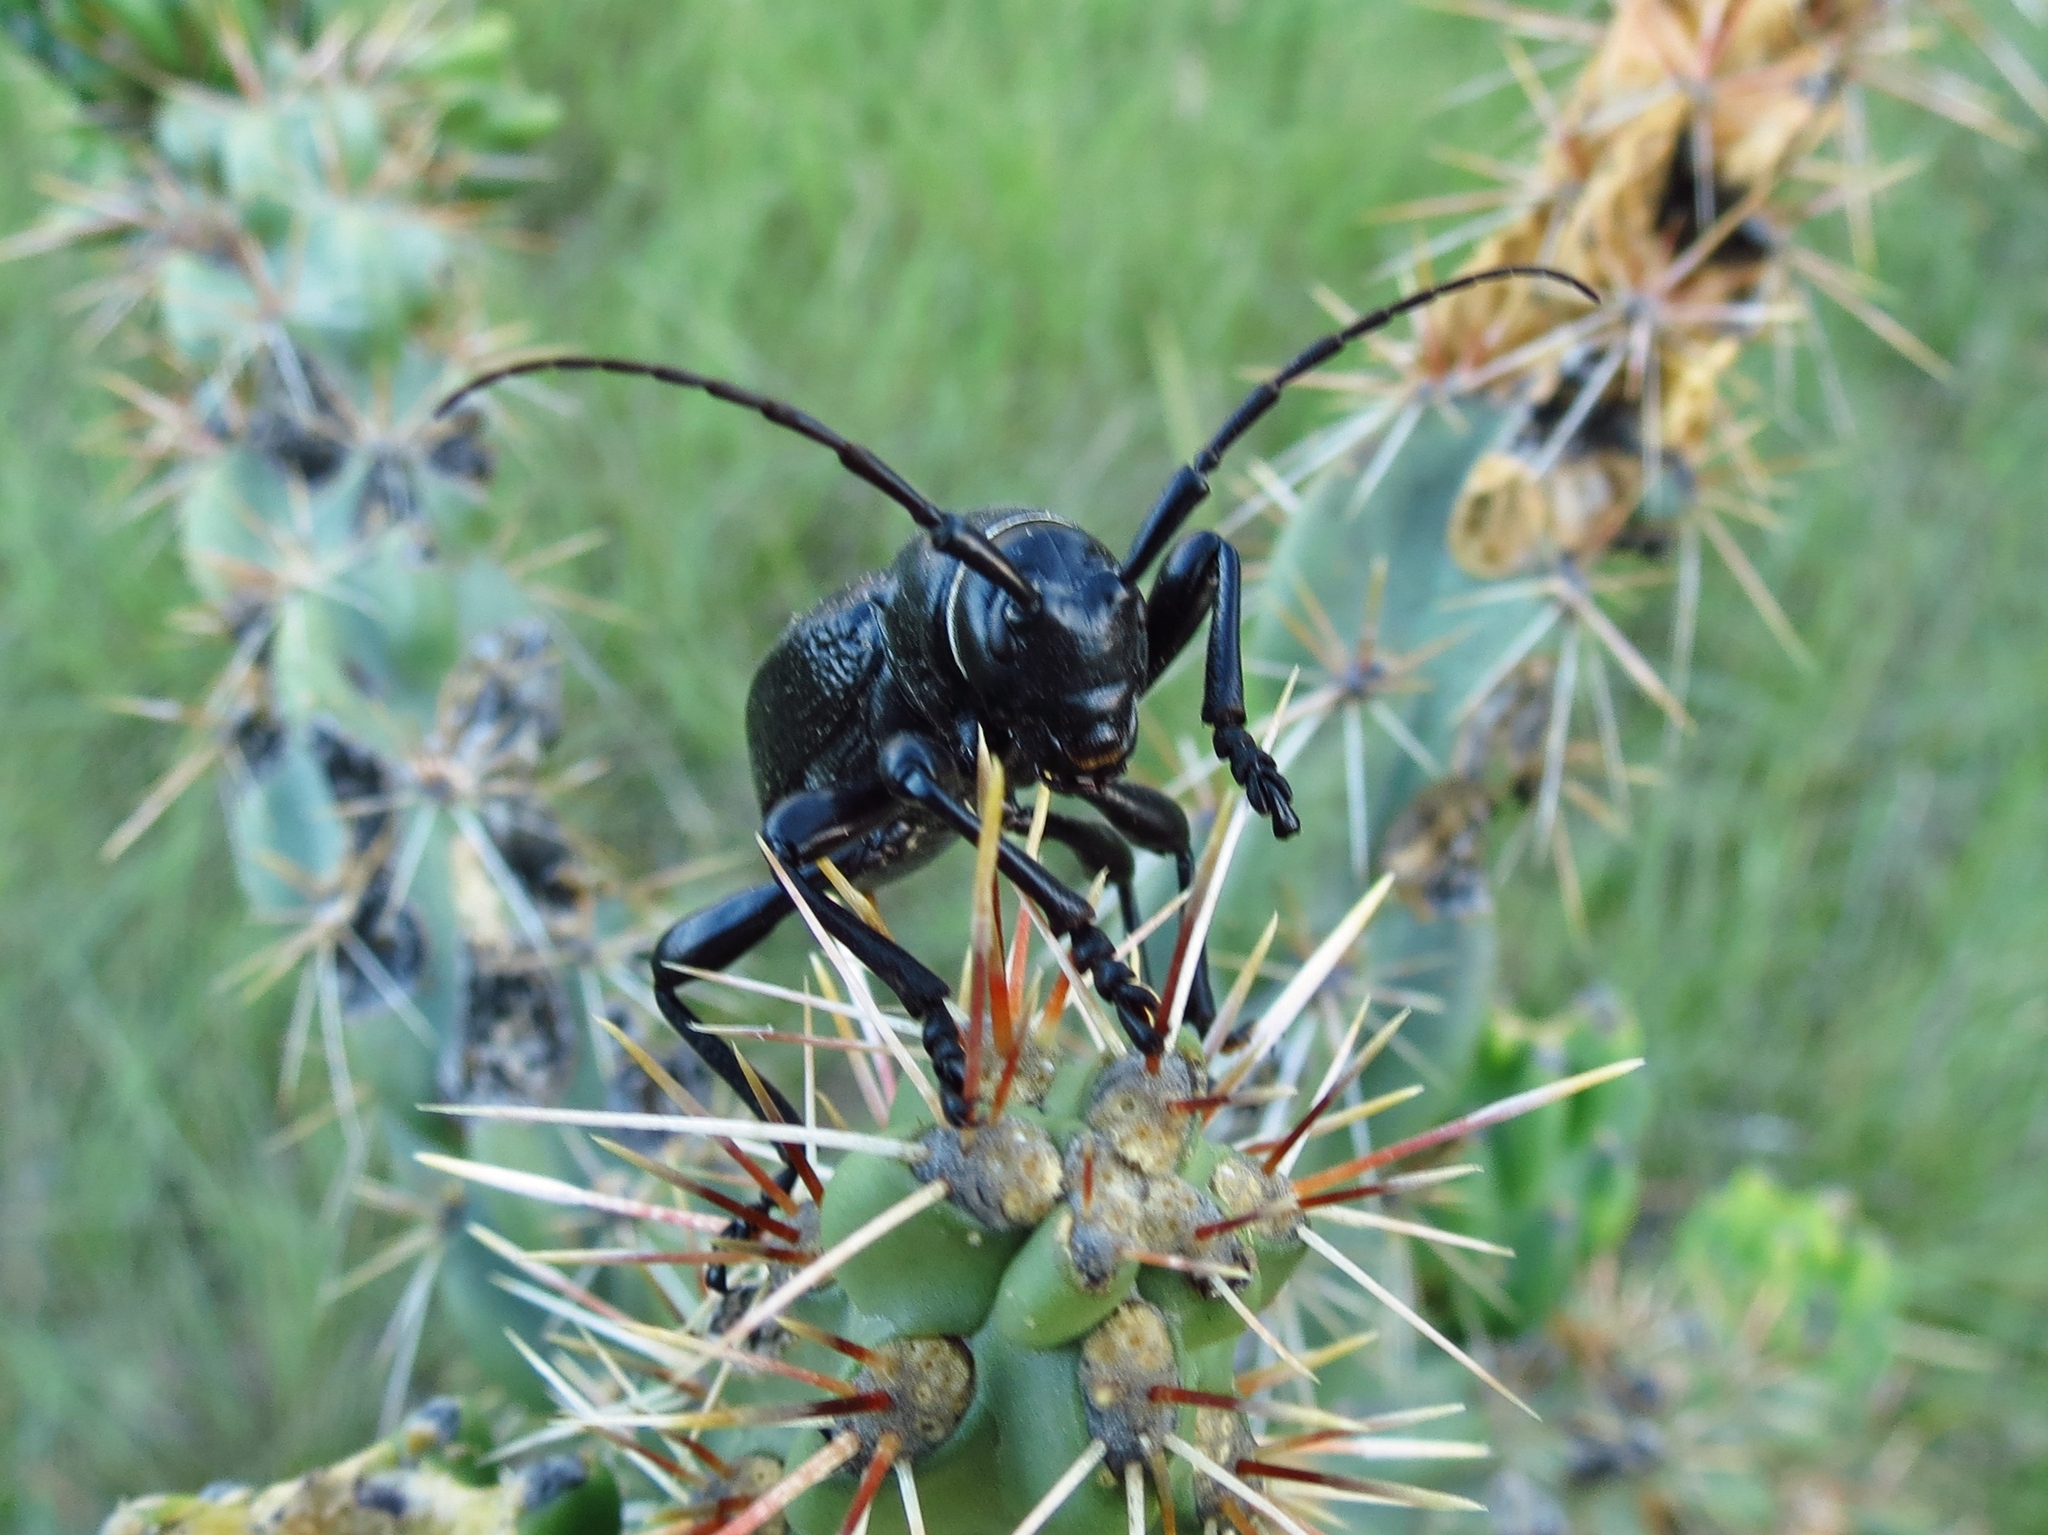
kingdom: Animalia
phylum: Arthropoda
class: Insecta
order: Coleoptera
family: Cerambycidae
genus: Moneilema
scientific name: Moneilema armatum
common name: Long-horned beetle
